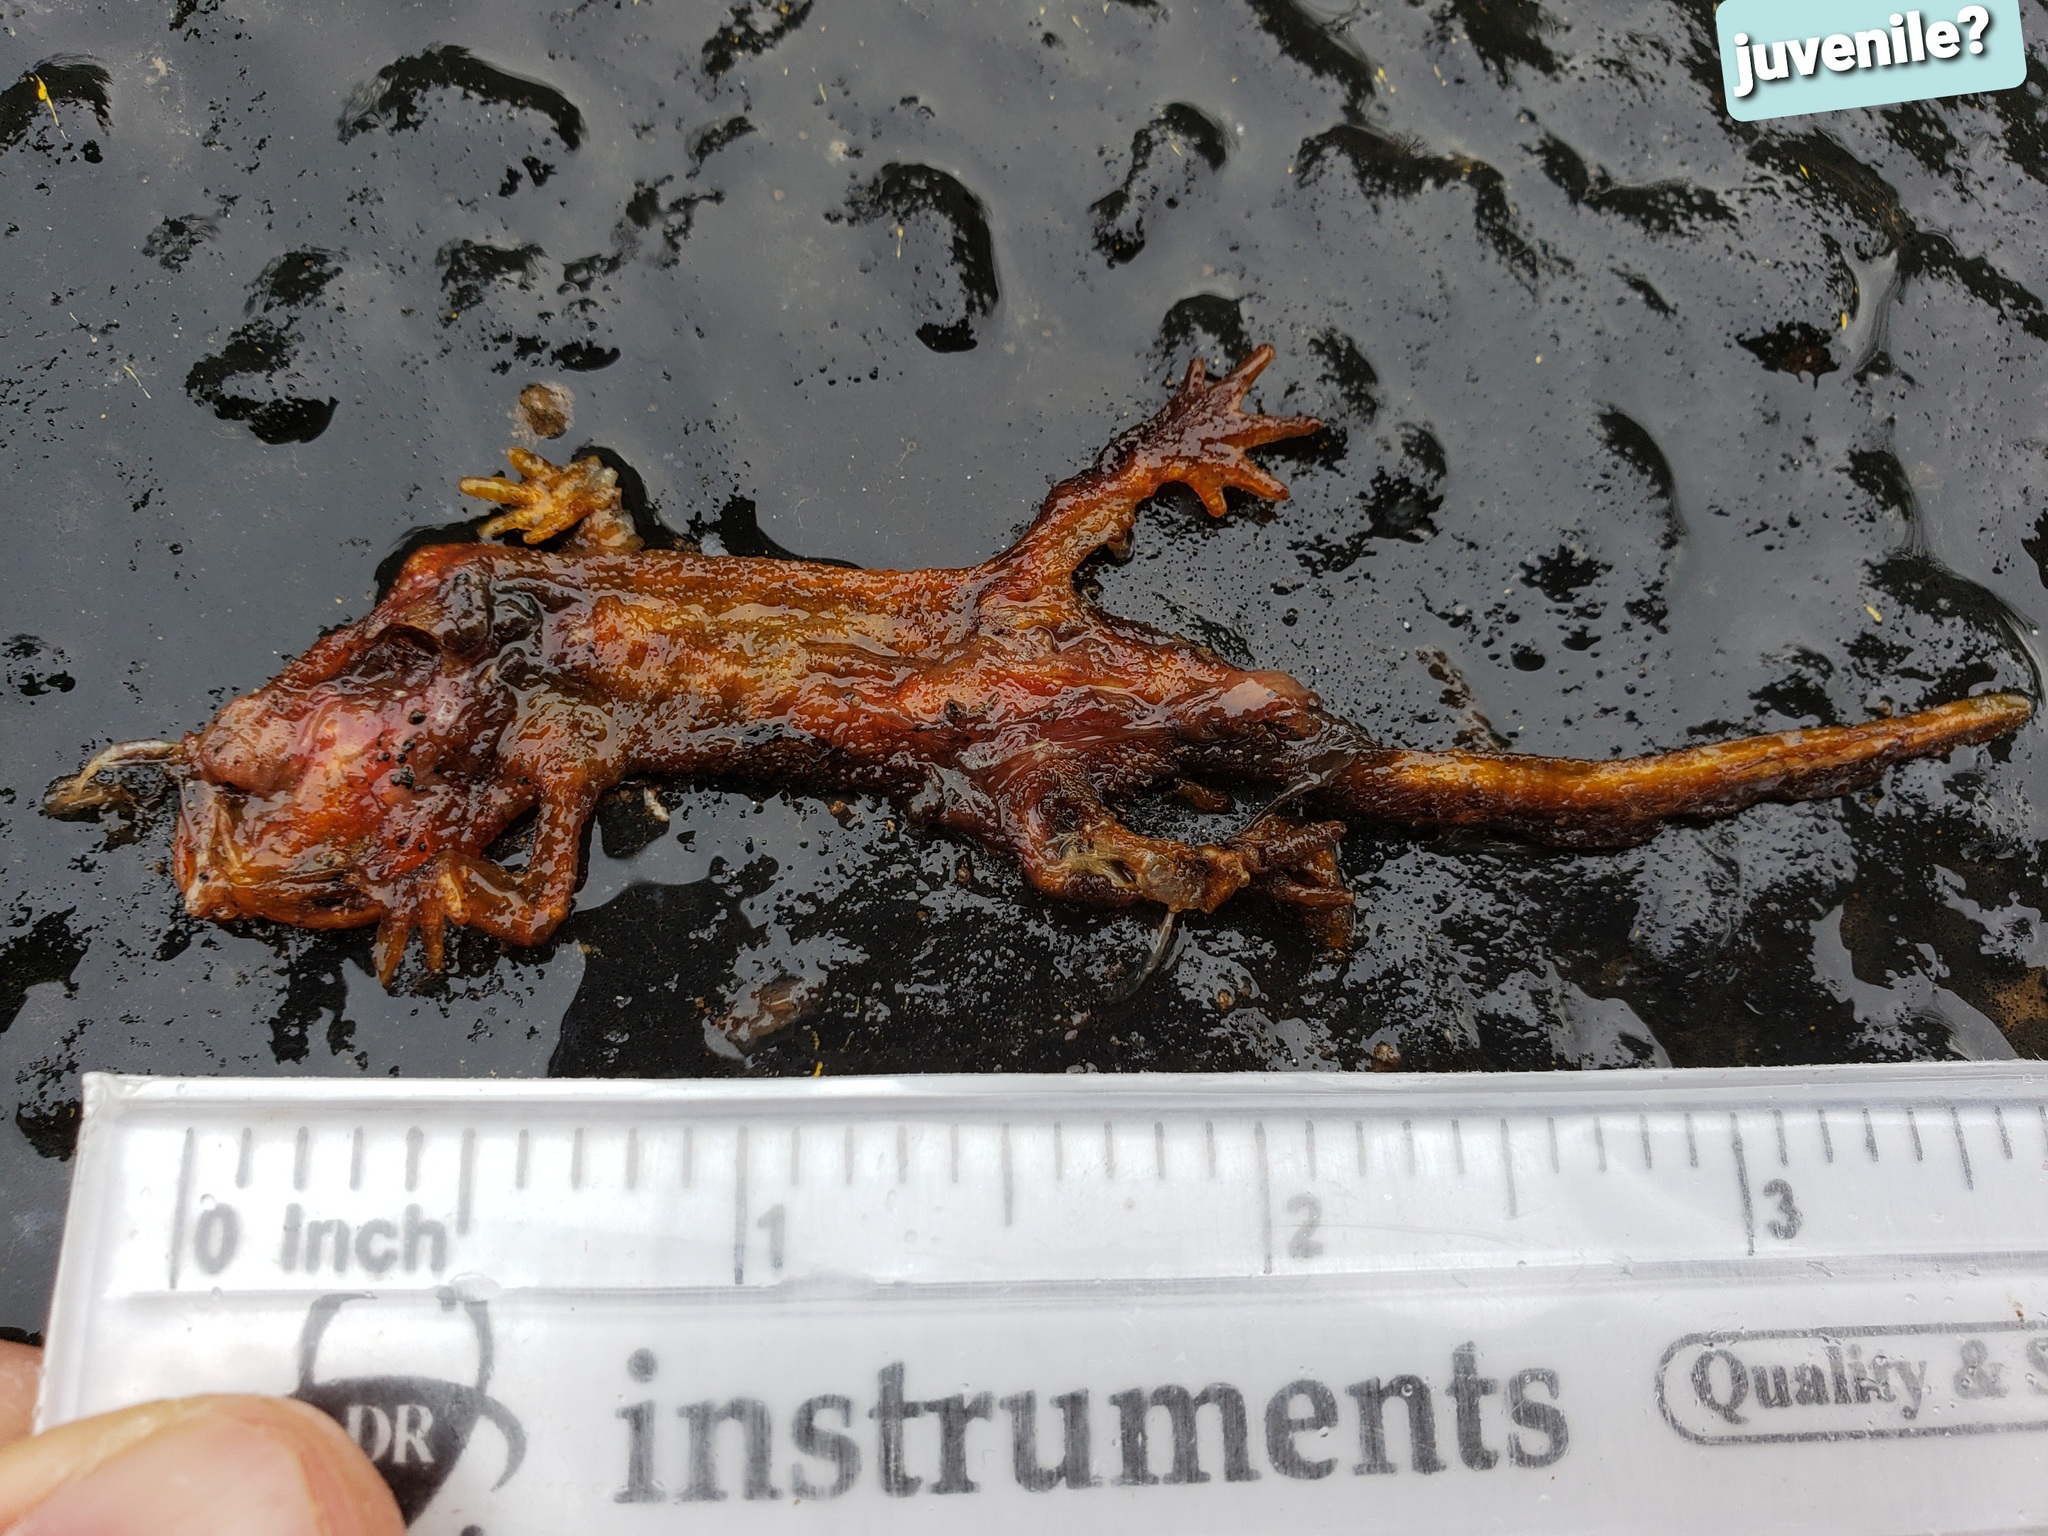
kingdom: Animalia
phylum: Chordata
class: Amphibia
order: Caudata
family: Salamandridae
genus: Taricha
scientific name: Taricha
